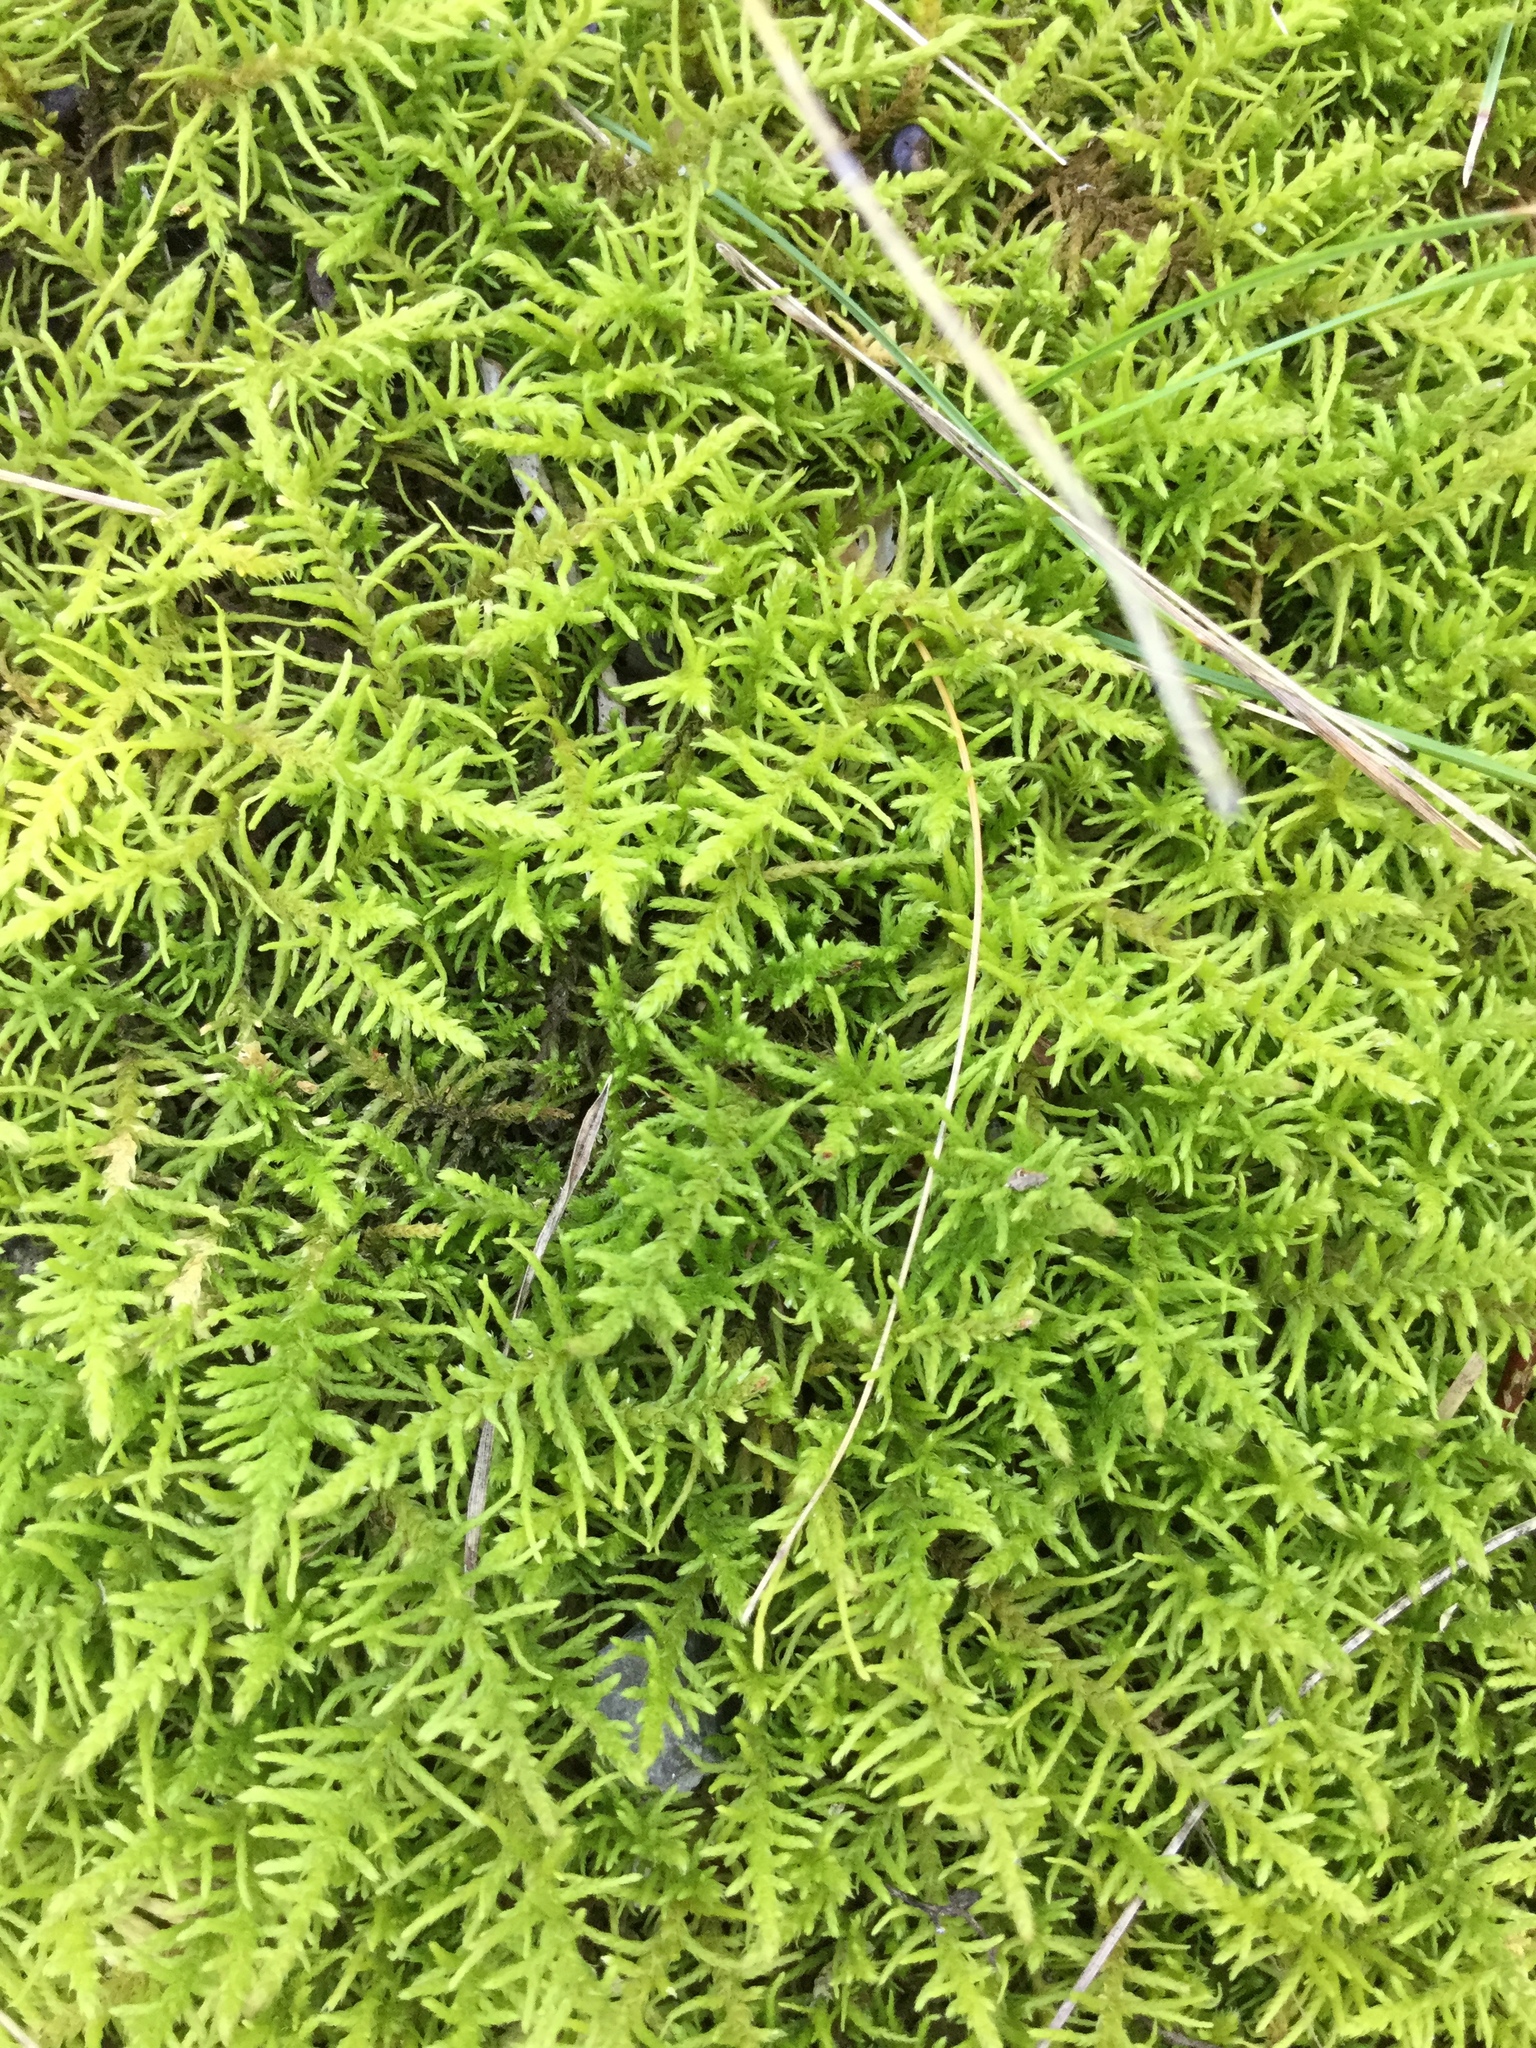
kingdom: Plantae
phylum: Bryophyta
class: Bryopsida
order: Hypnales
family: Thuidiaceae
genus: Abietinella
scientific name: Abietinella abietina
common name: Wiry fern moss
